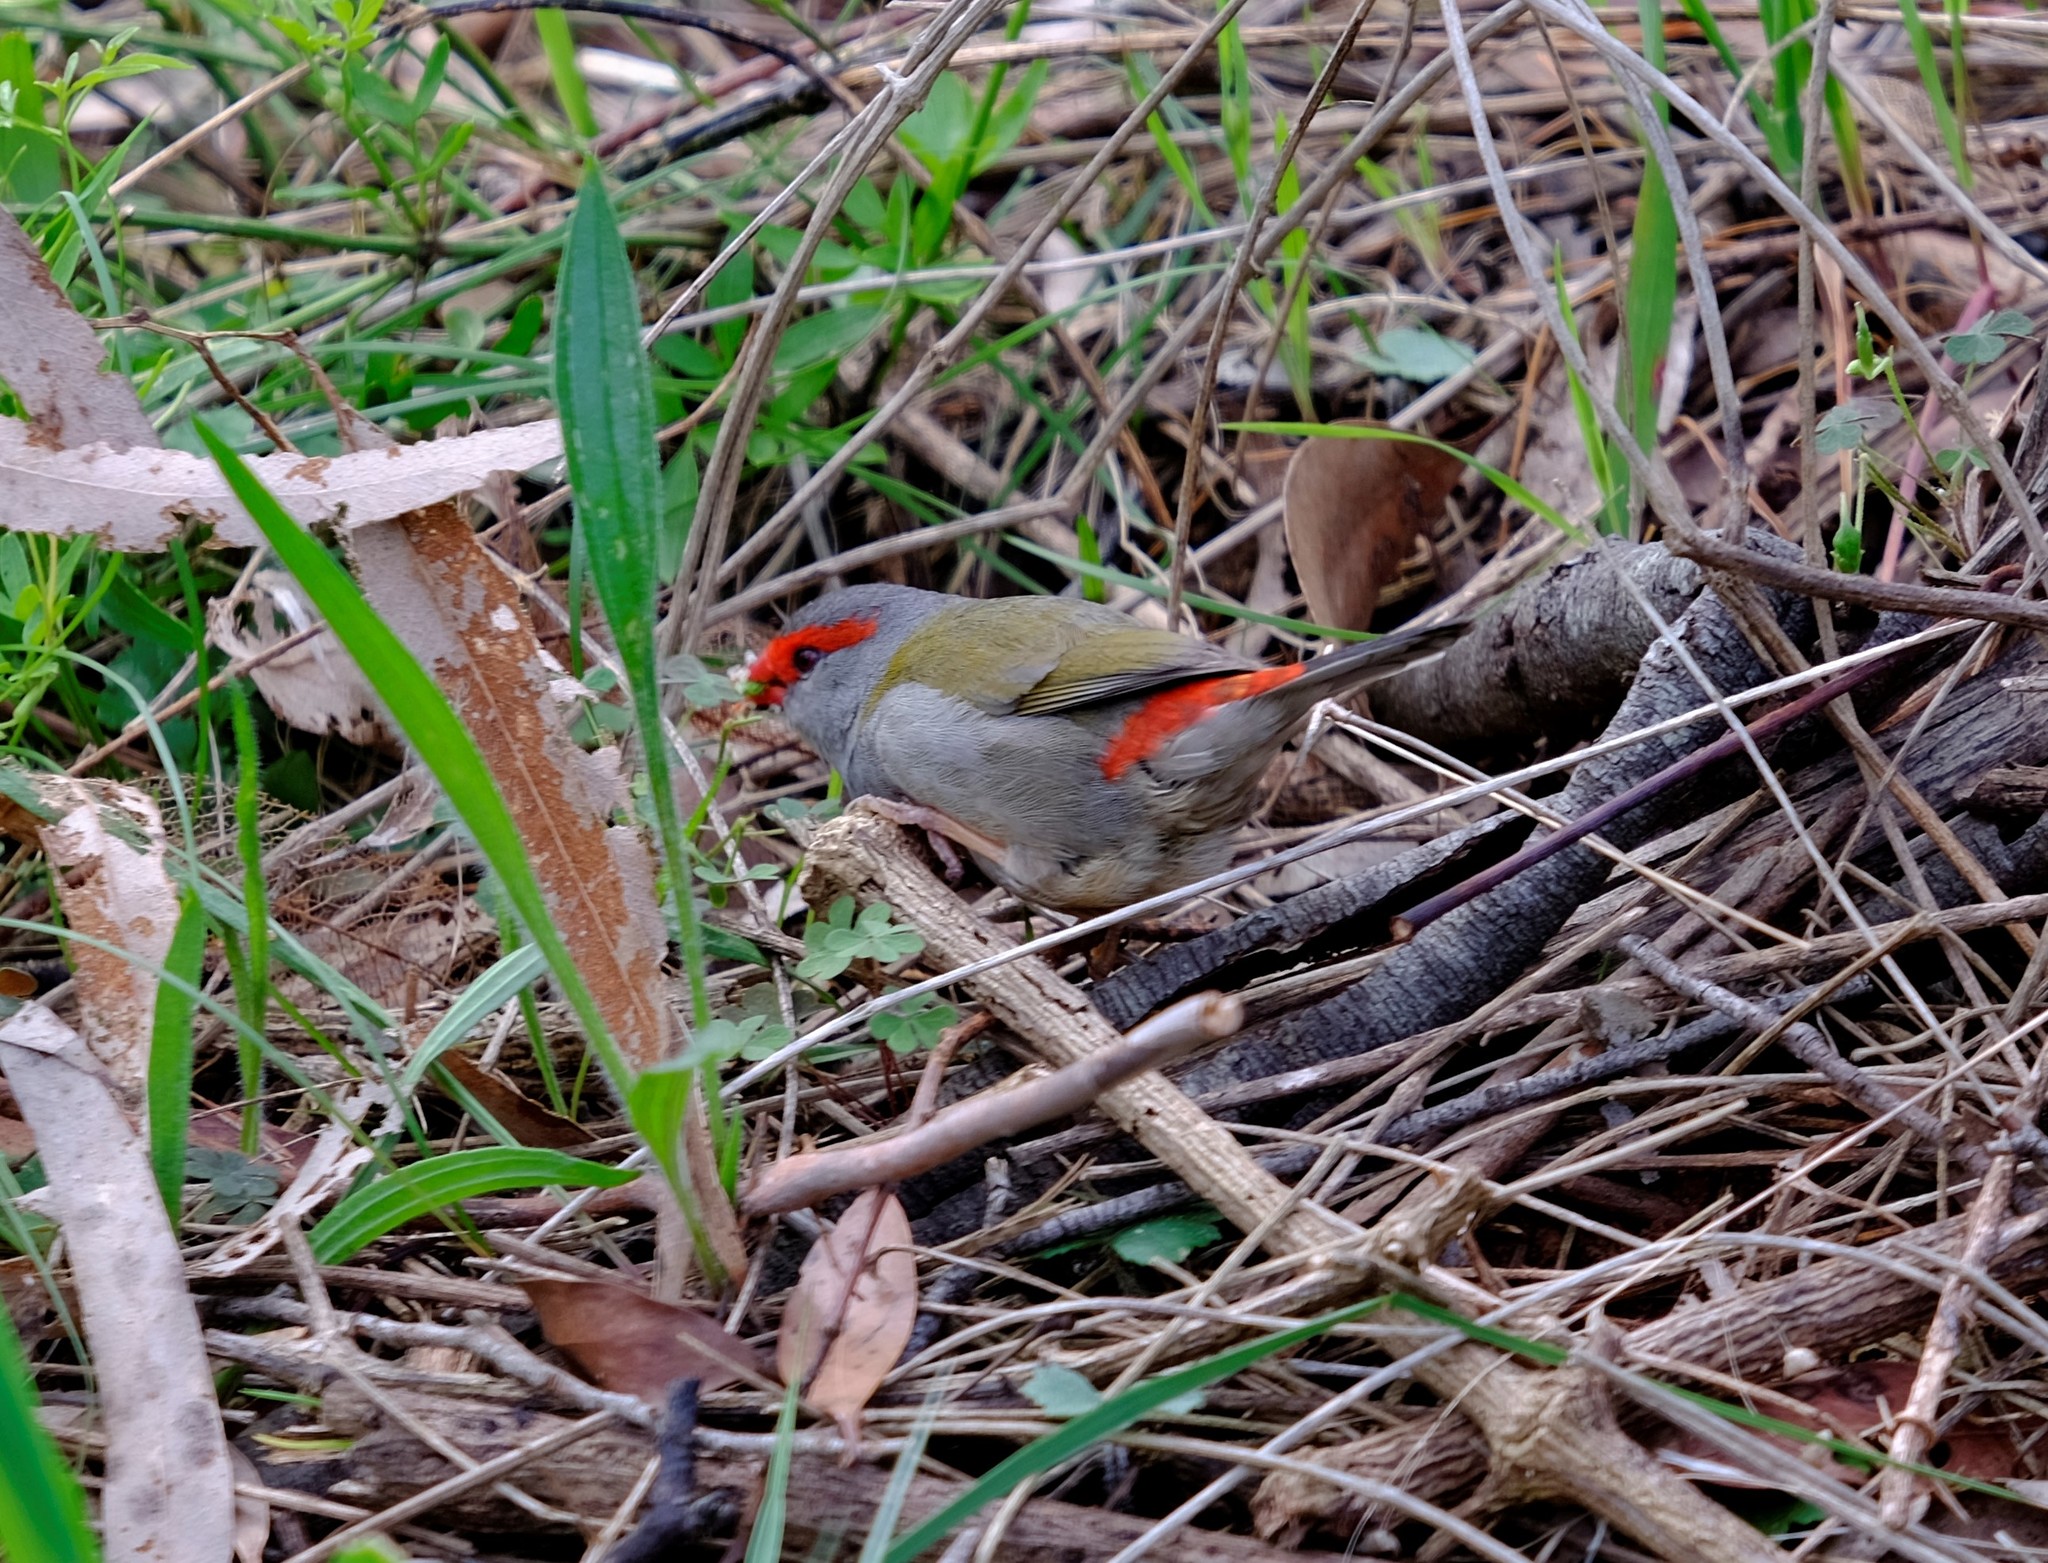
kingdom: Animalia
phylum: Chordata
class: Aves
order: Passeriformes
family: Estrildidae
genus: Neochmia
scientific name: Neochmia temporalis
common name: Red-browed finch
